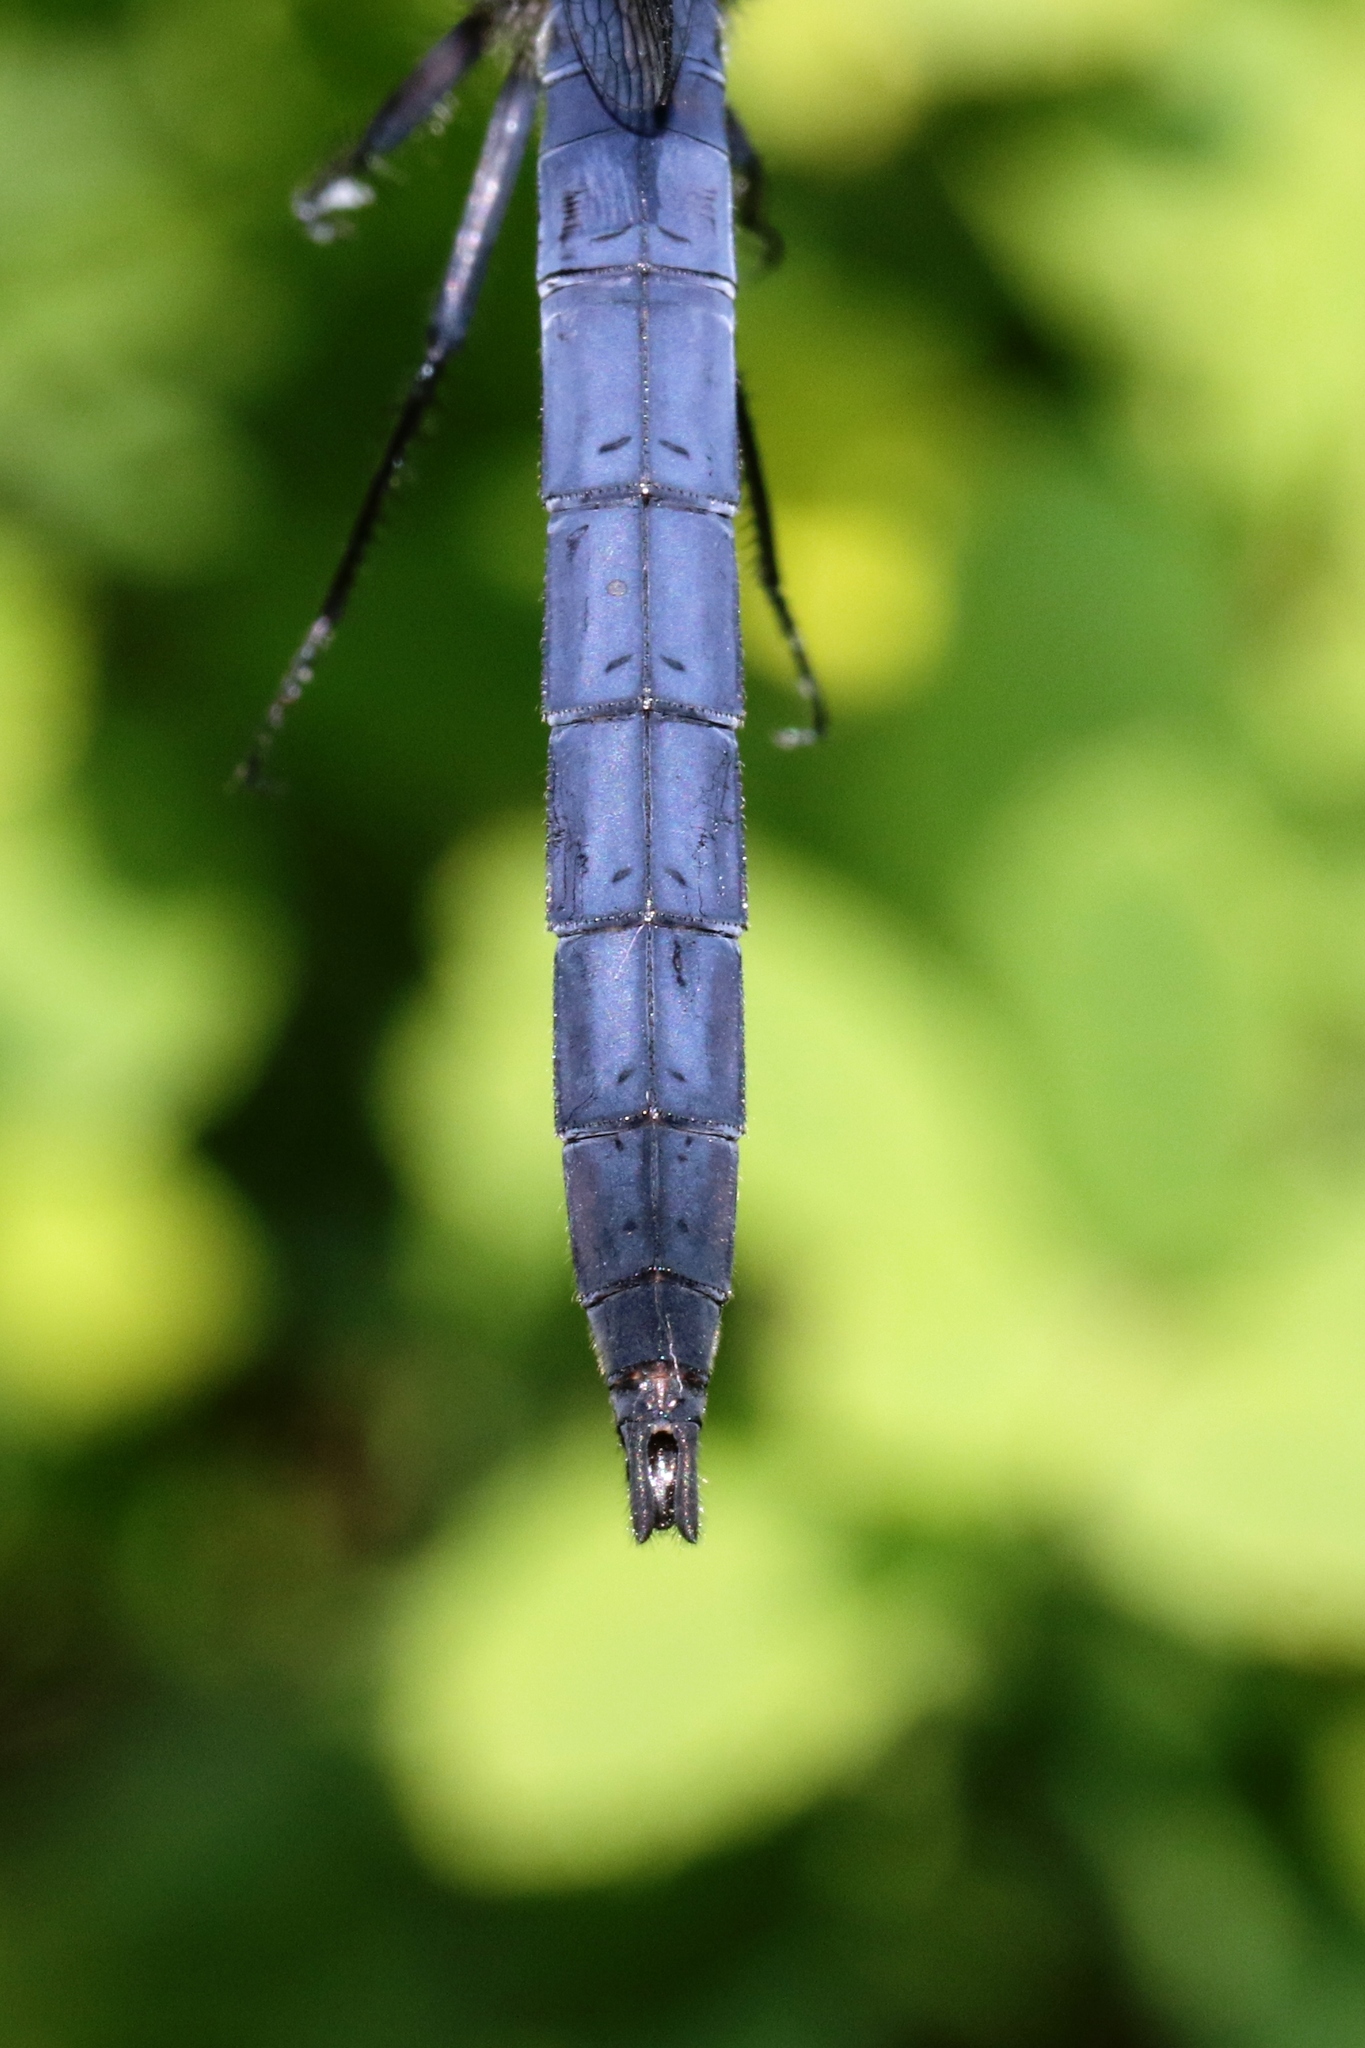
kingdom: Animalia
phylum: Arthropoda
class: Insecta
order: Odonata
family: Libellulidae
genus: Libellula
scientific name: Libellula incesta
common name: Slaty skimmer
